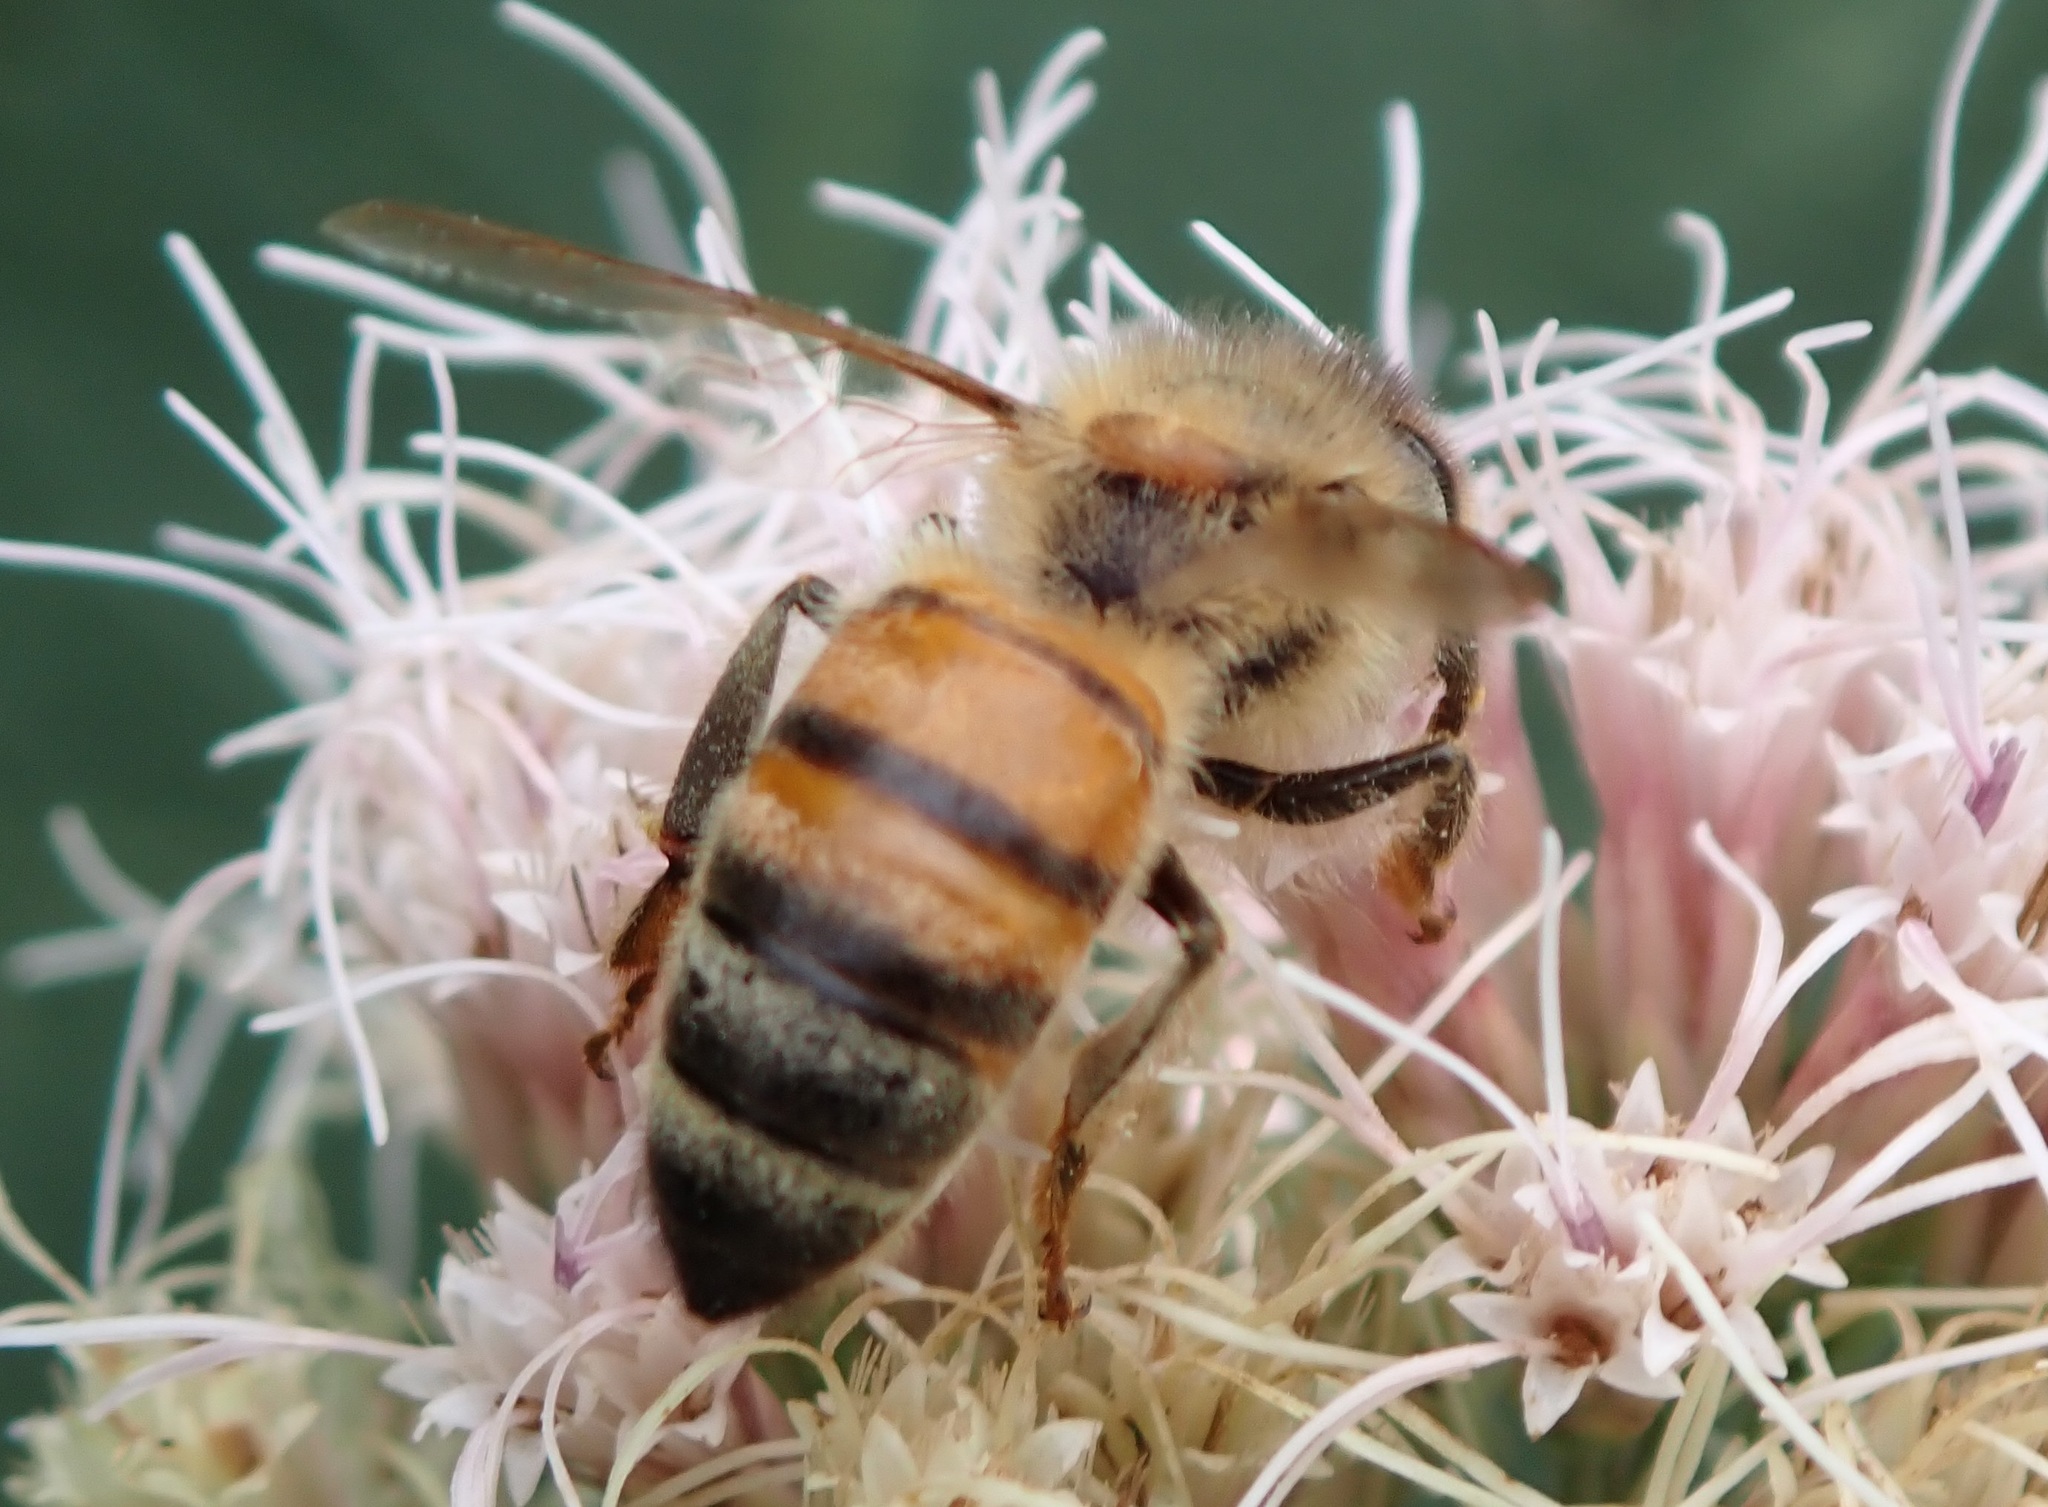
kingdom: Animalia
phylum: Arthropoda
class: Insecta
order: Hymenoptera
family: Apidae
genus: Apis
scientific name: Apis mellifera
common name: Honey bee
